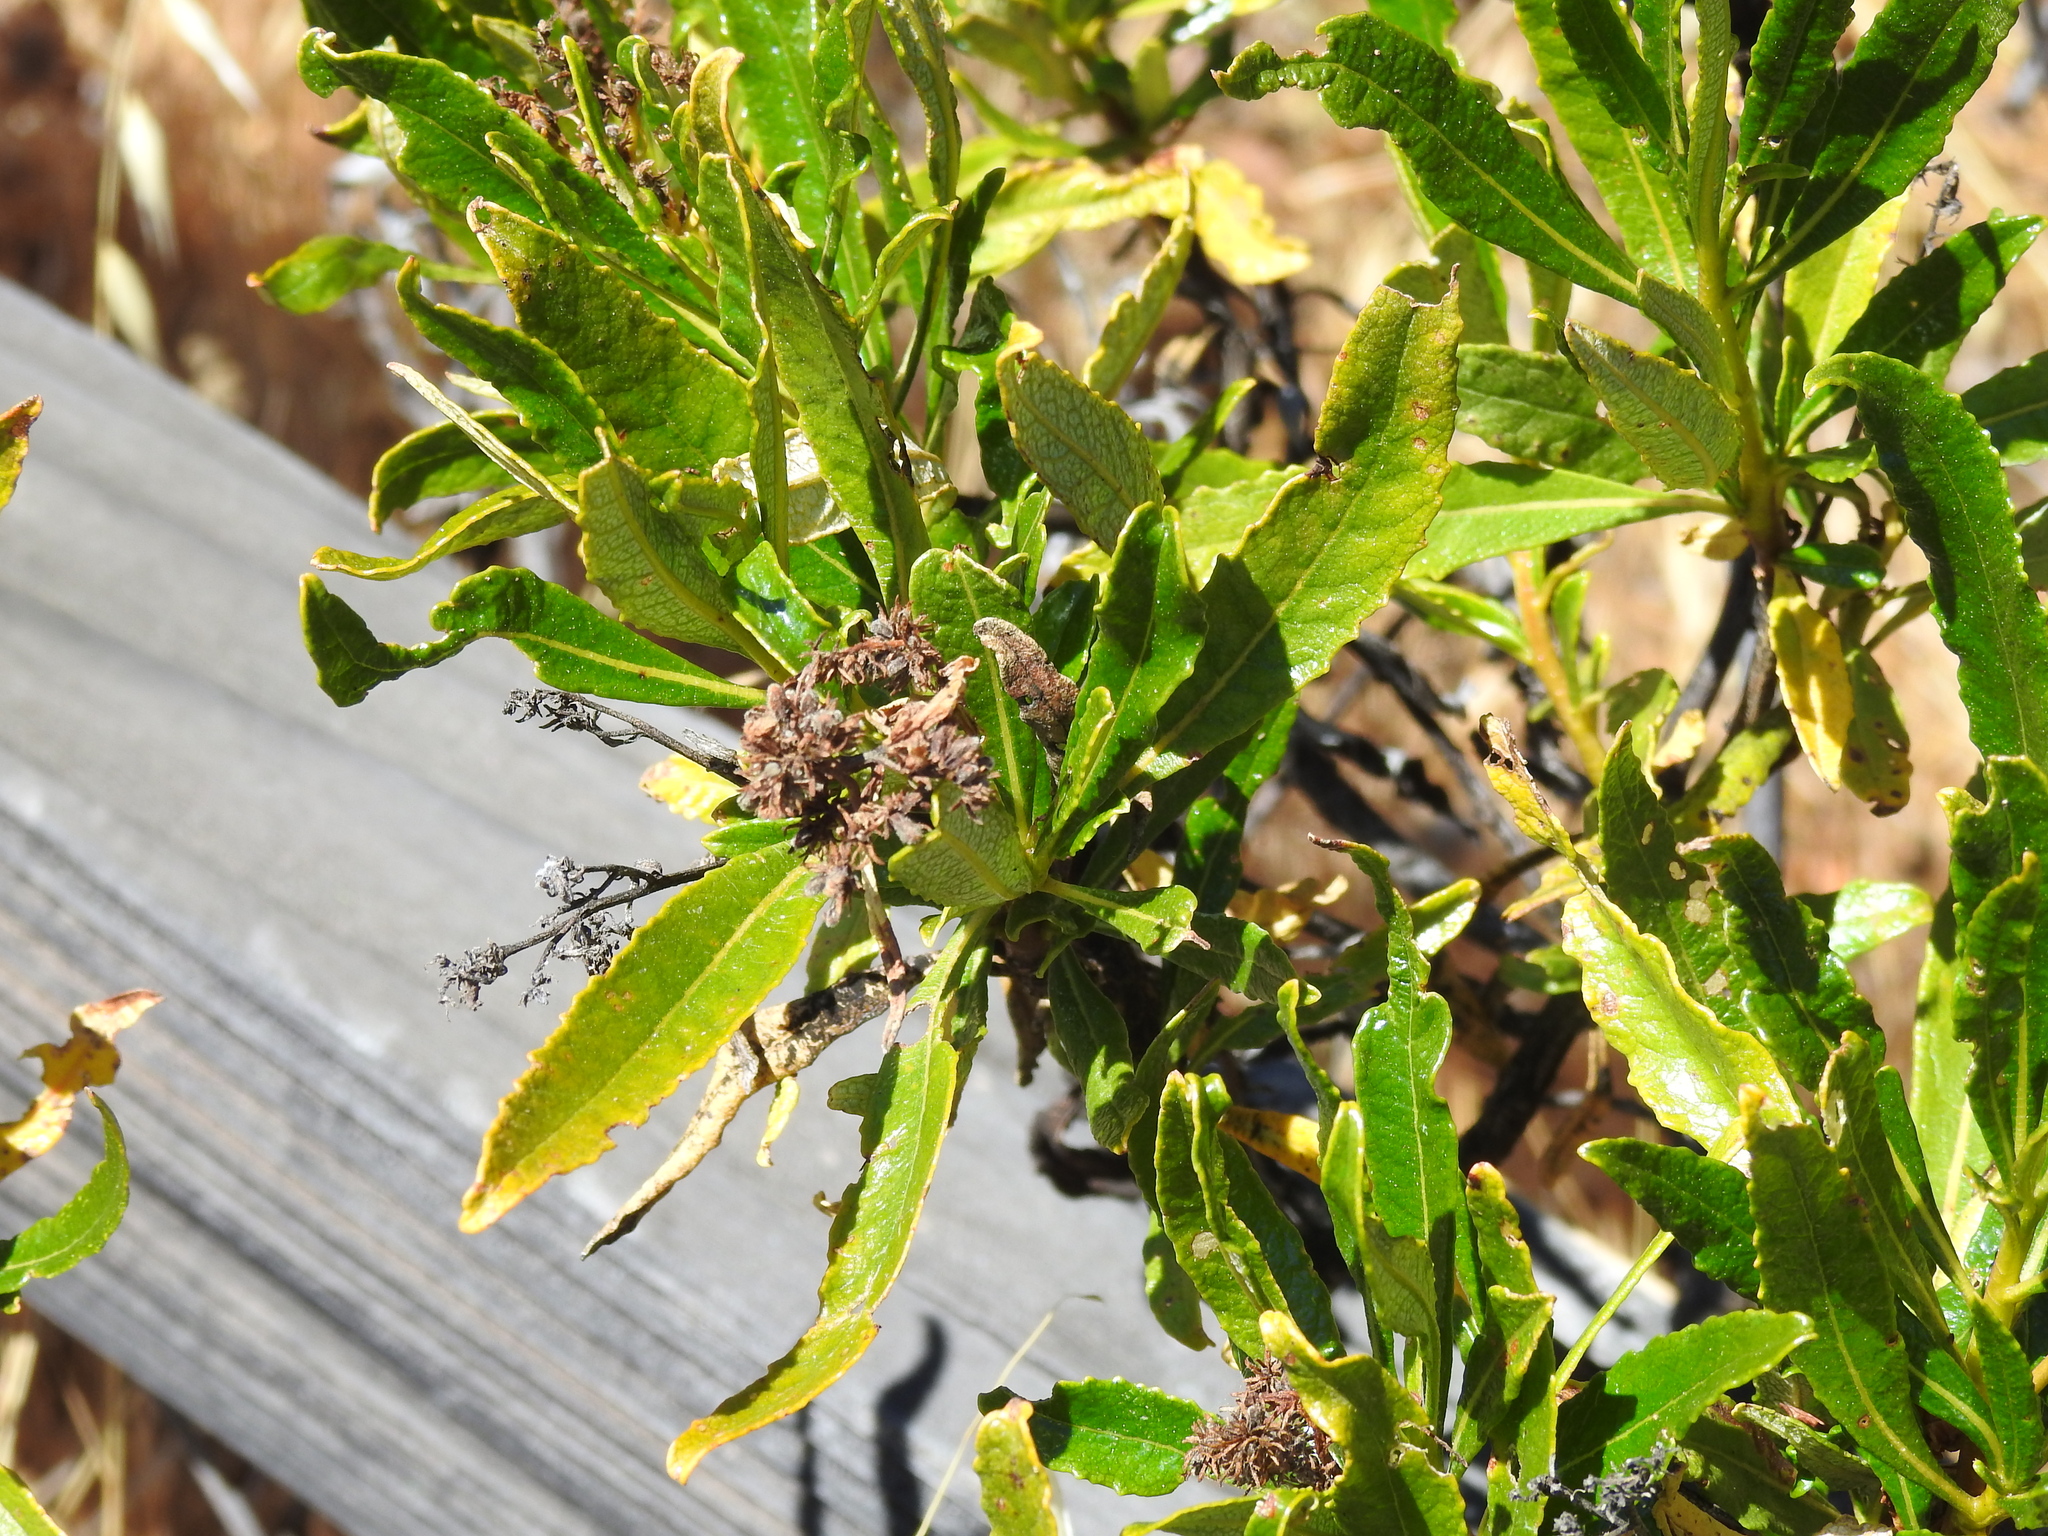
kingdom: Plantae
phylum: Tracheophyta
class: Magnoliopsida
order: Boraginales
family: Namaceae
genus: Eriodictyon
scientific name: Eriodictyon californicum
